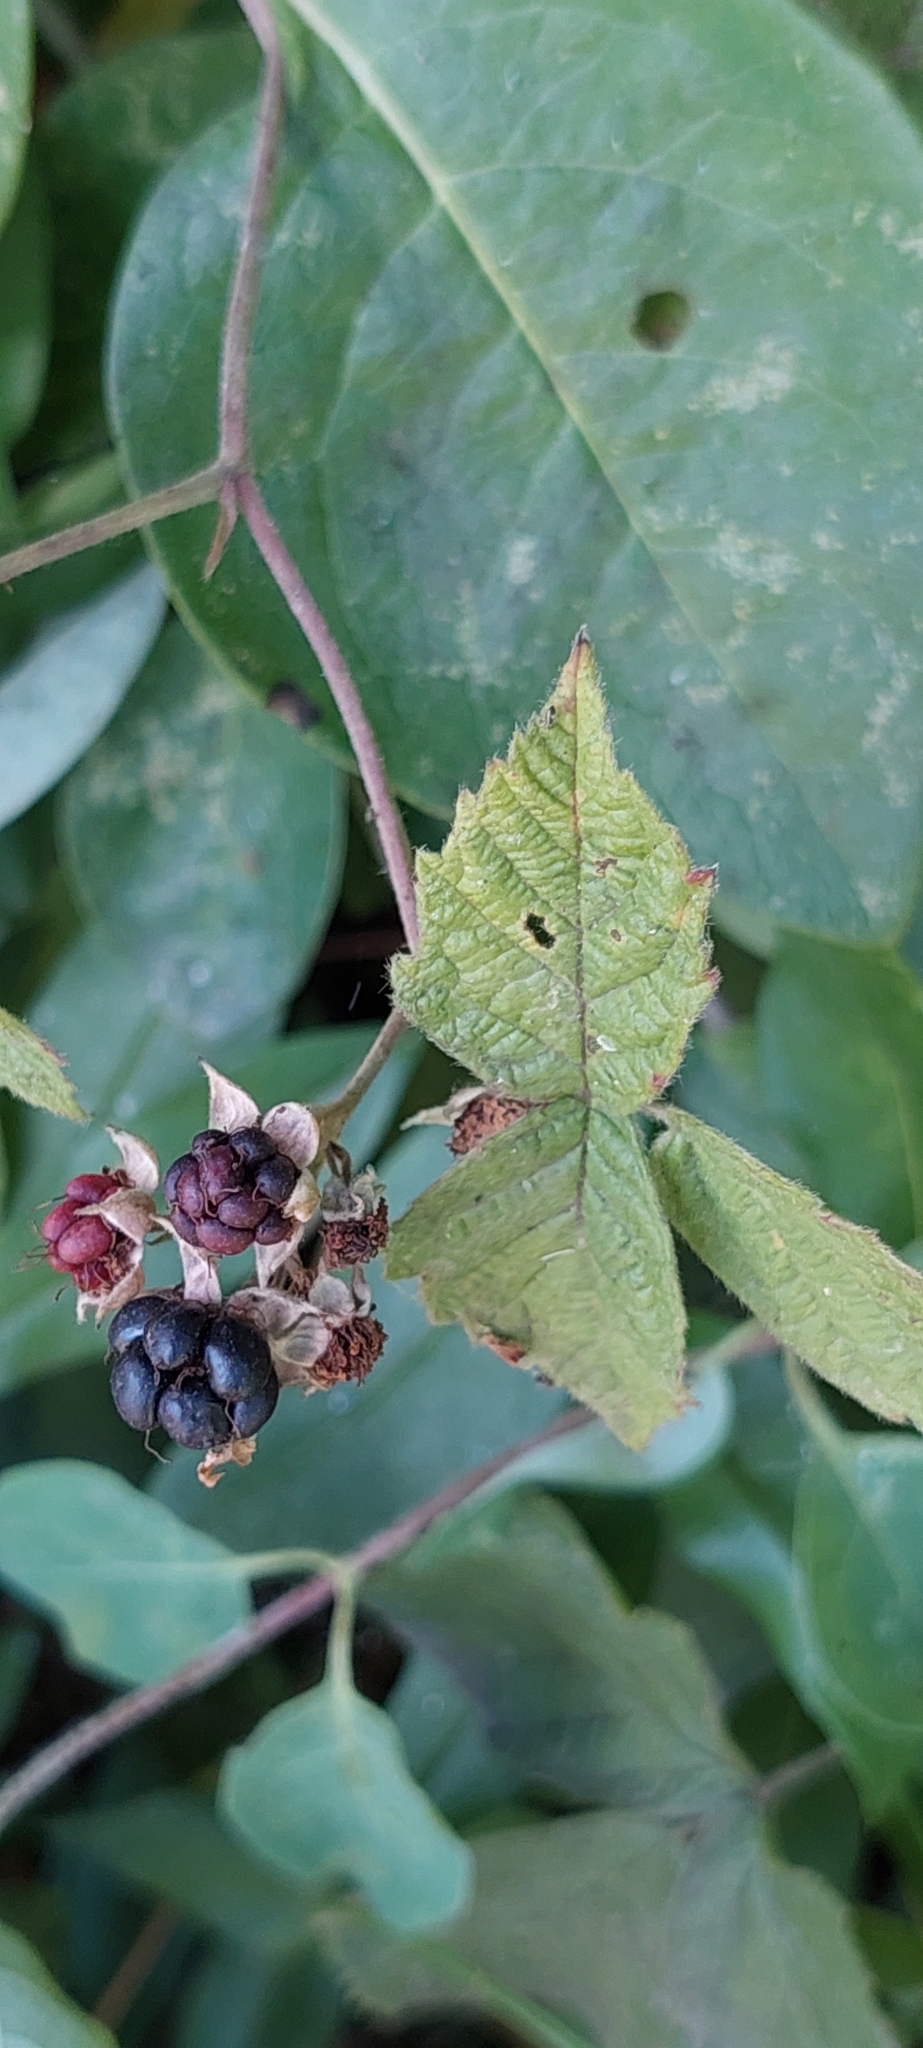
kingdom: Plantae
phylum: Tracheophyta
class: Magnoliopsida
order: Rosales
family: Rosaceae
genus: Rubus
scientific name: Rubus caesius
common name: Dewberry
